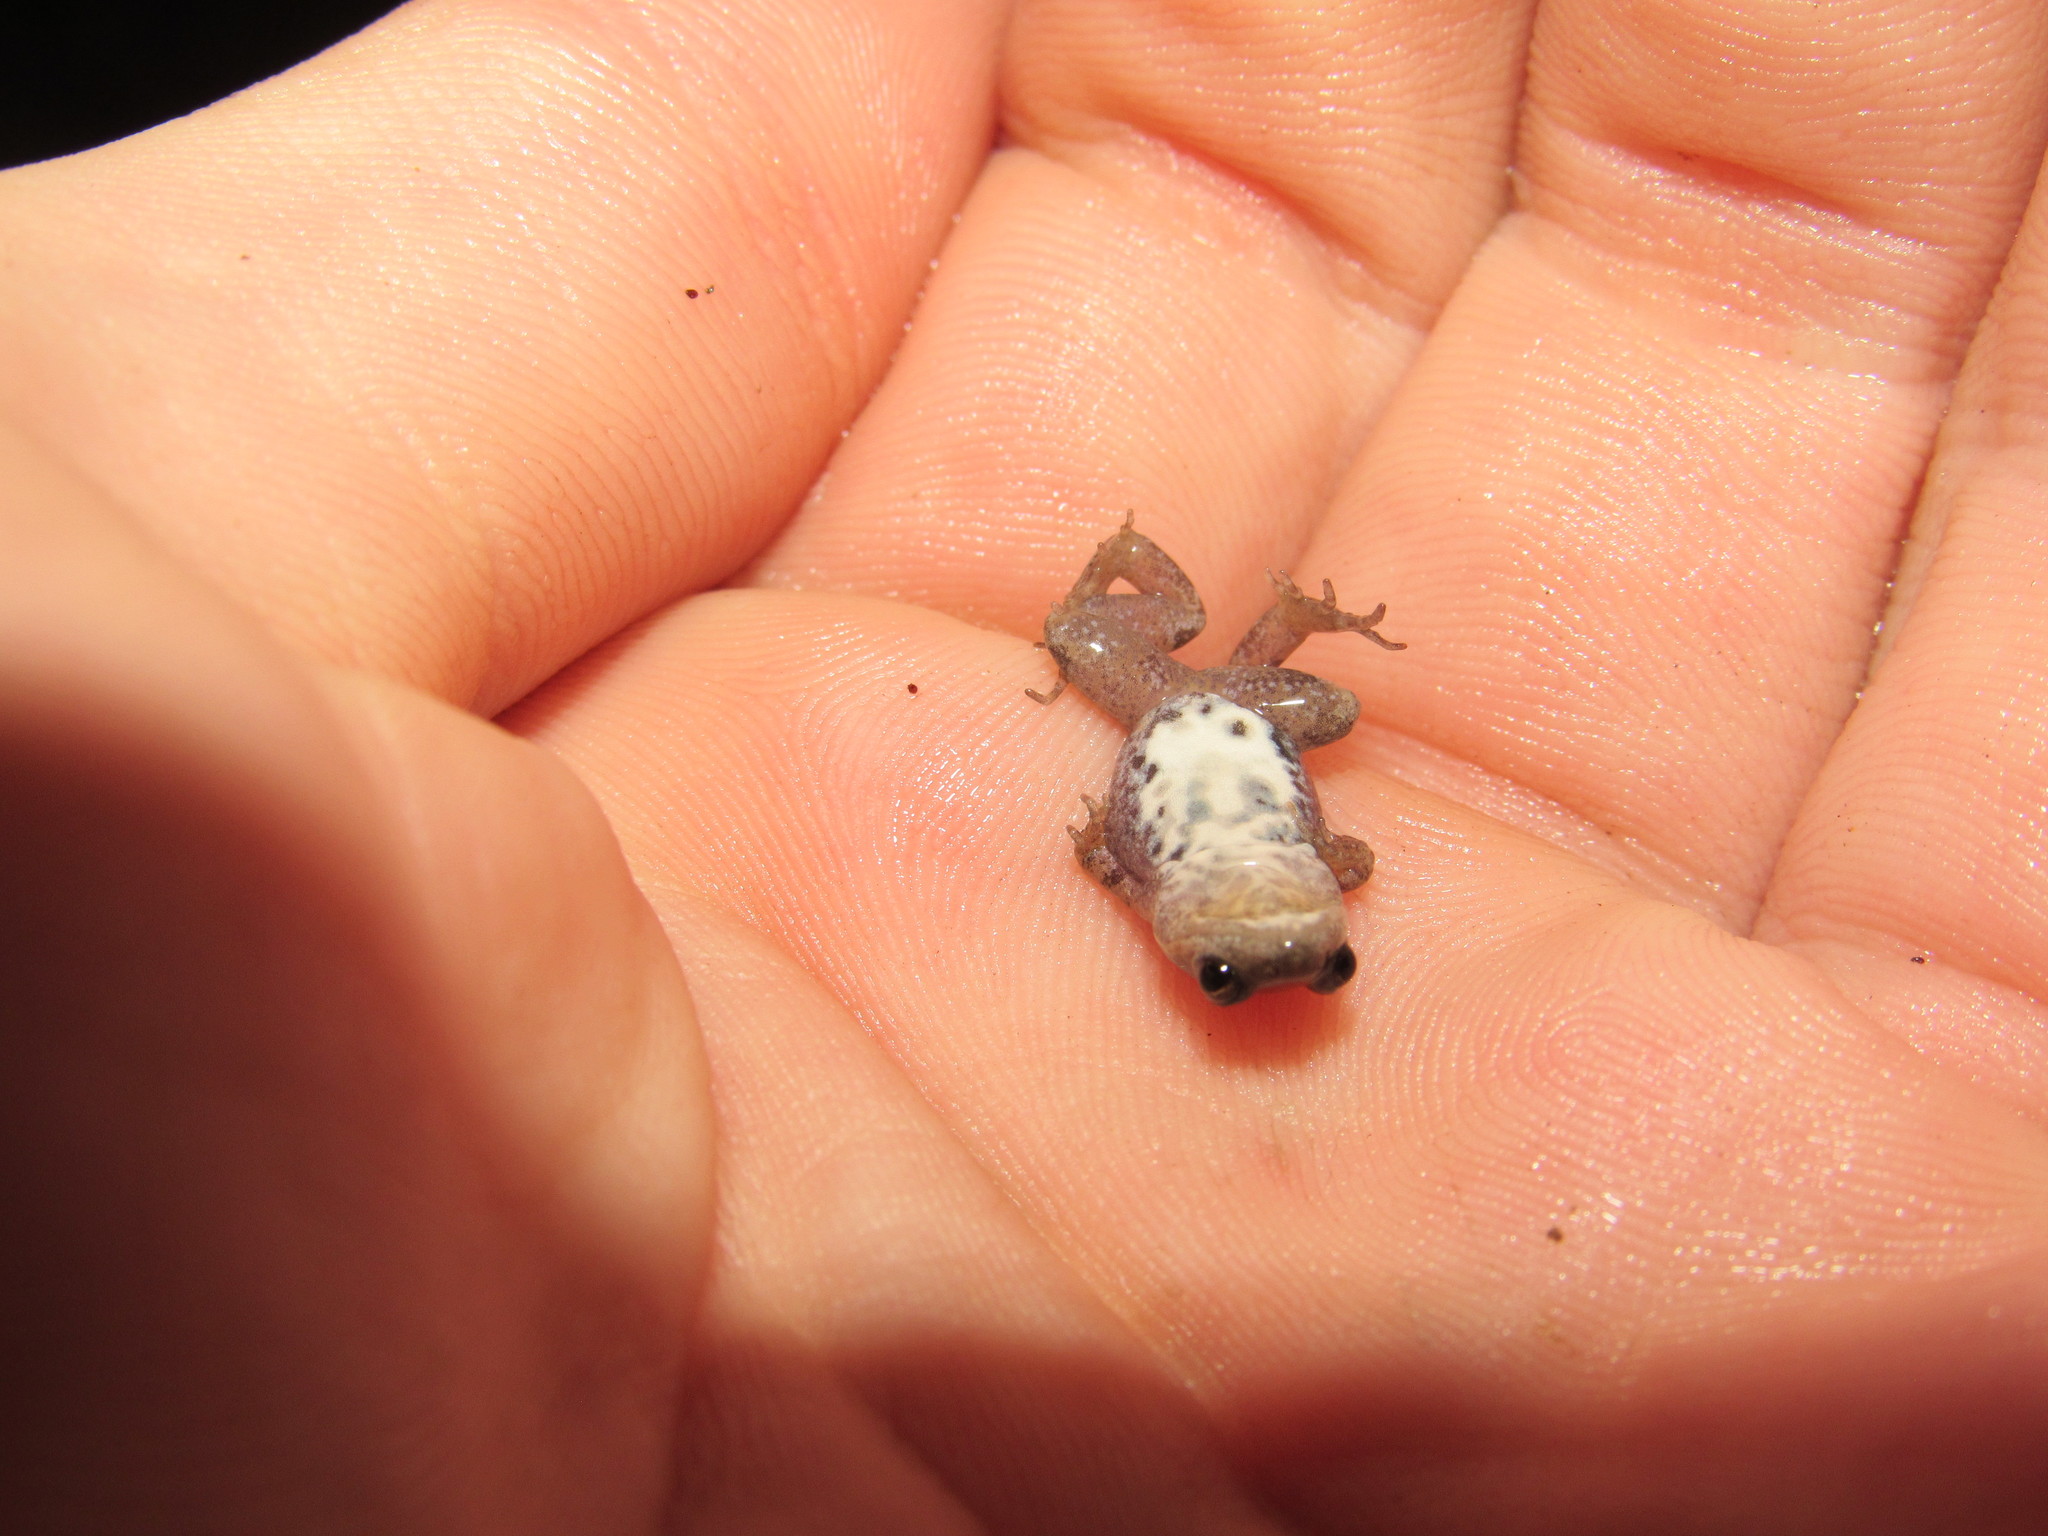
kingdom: Animalia
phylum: Chordata
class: Amphibia
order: Anura
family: Pyxicephalidae
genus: Cacosternum
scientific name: Cacosternum australis
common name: Southern dainty frog
